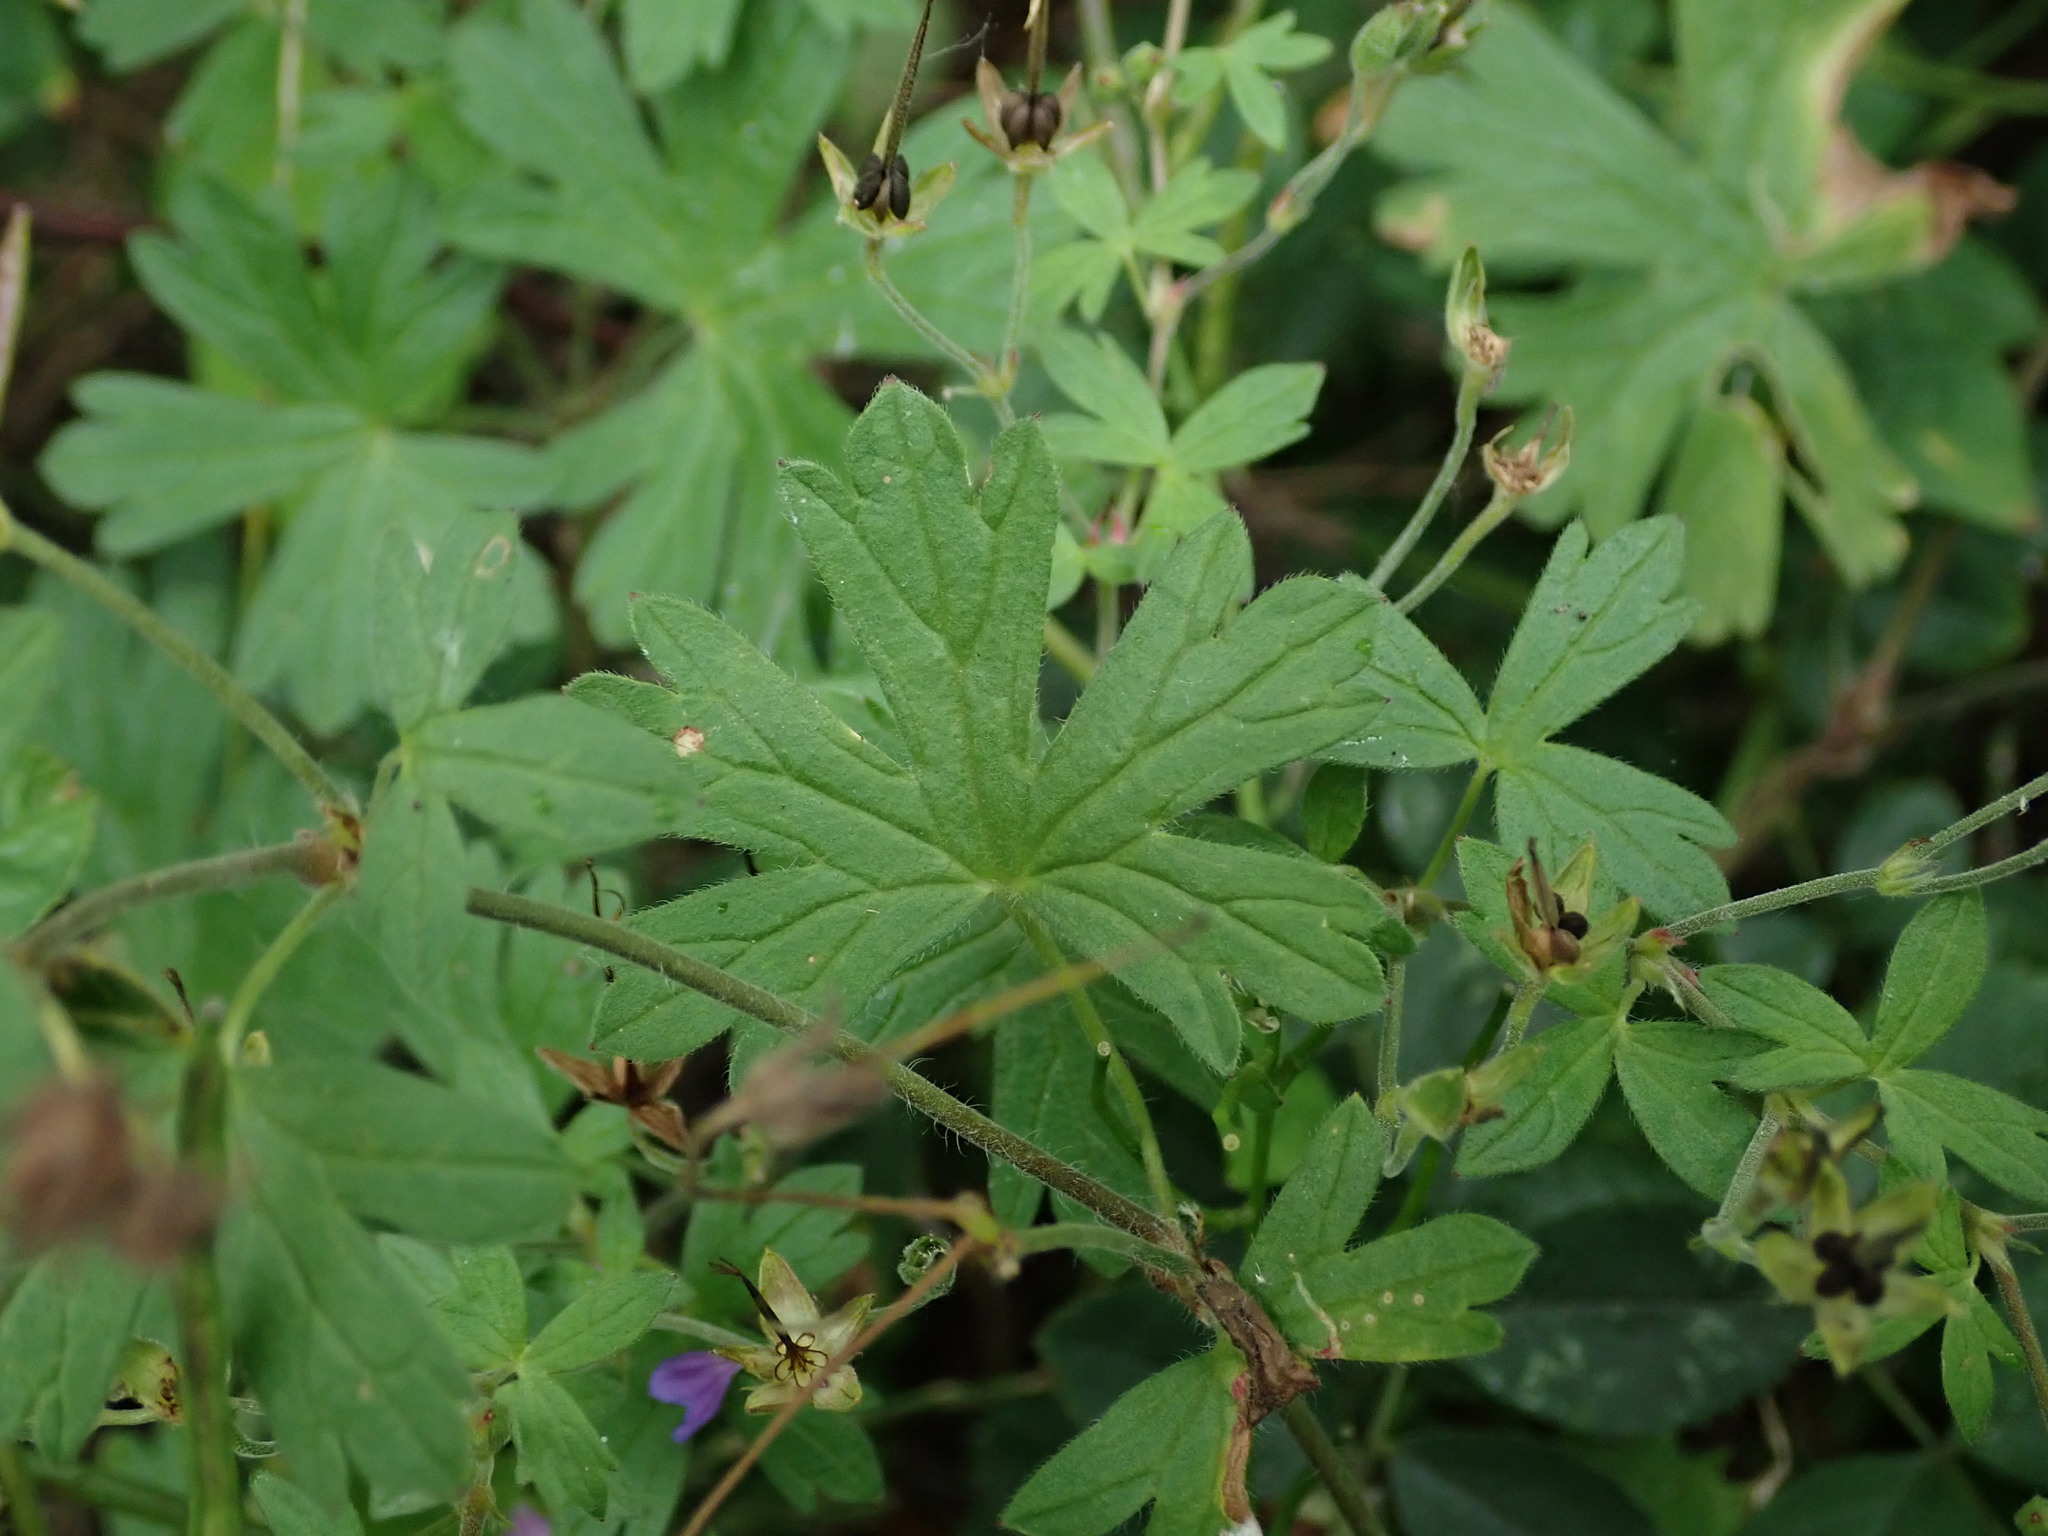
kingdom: Plantae
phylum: Tracheophyta
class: Magnoliopsida
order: Geraniales
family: Geraniaceae
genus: Geranium
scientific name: Geranium pyrenaicum
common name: Hedgerow crane's-bill
